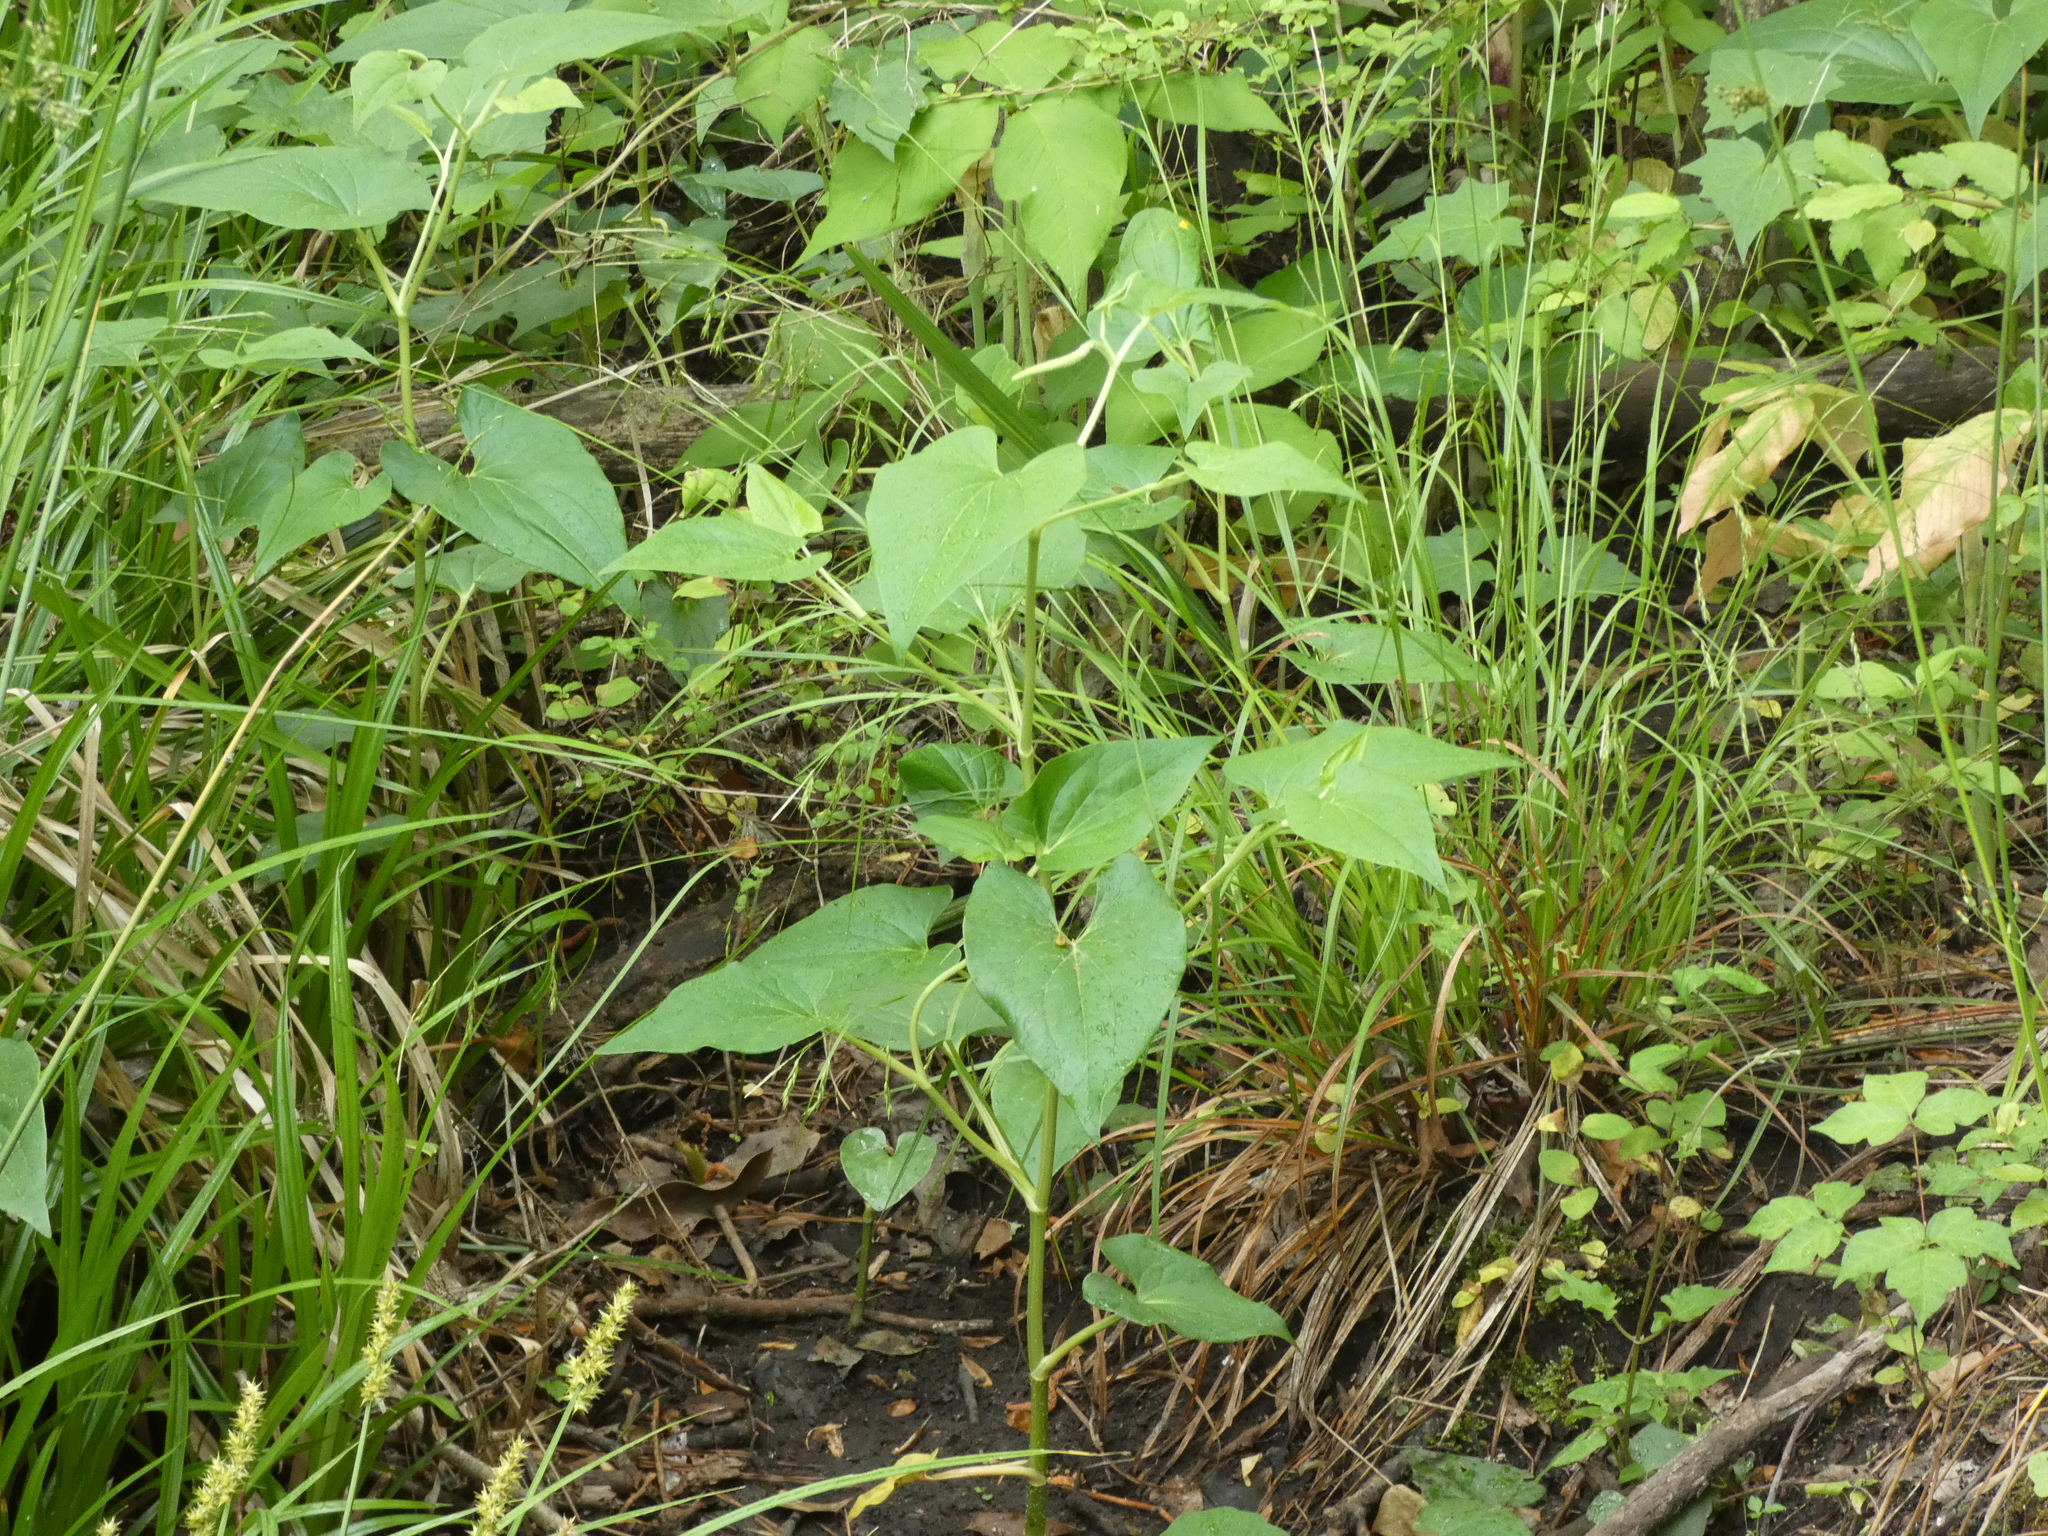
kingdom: Plantae
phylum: Tracheophyta
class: Magnoliopsida
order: Piperales
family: Saururaceae
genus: Saururus
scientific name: Saururus cernuus
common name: Lizard's-tail
